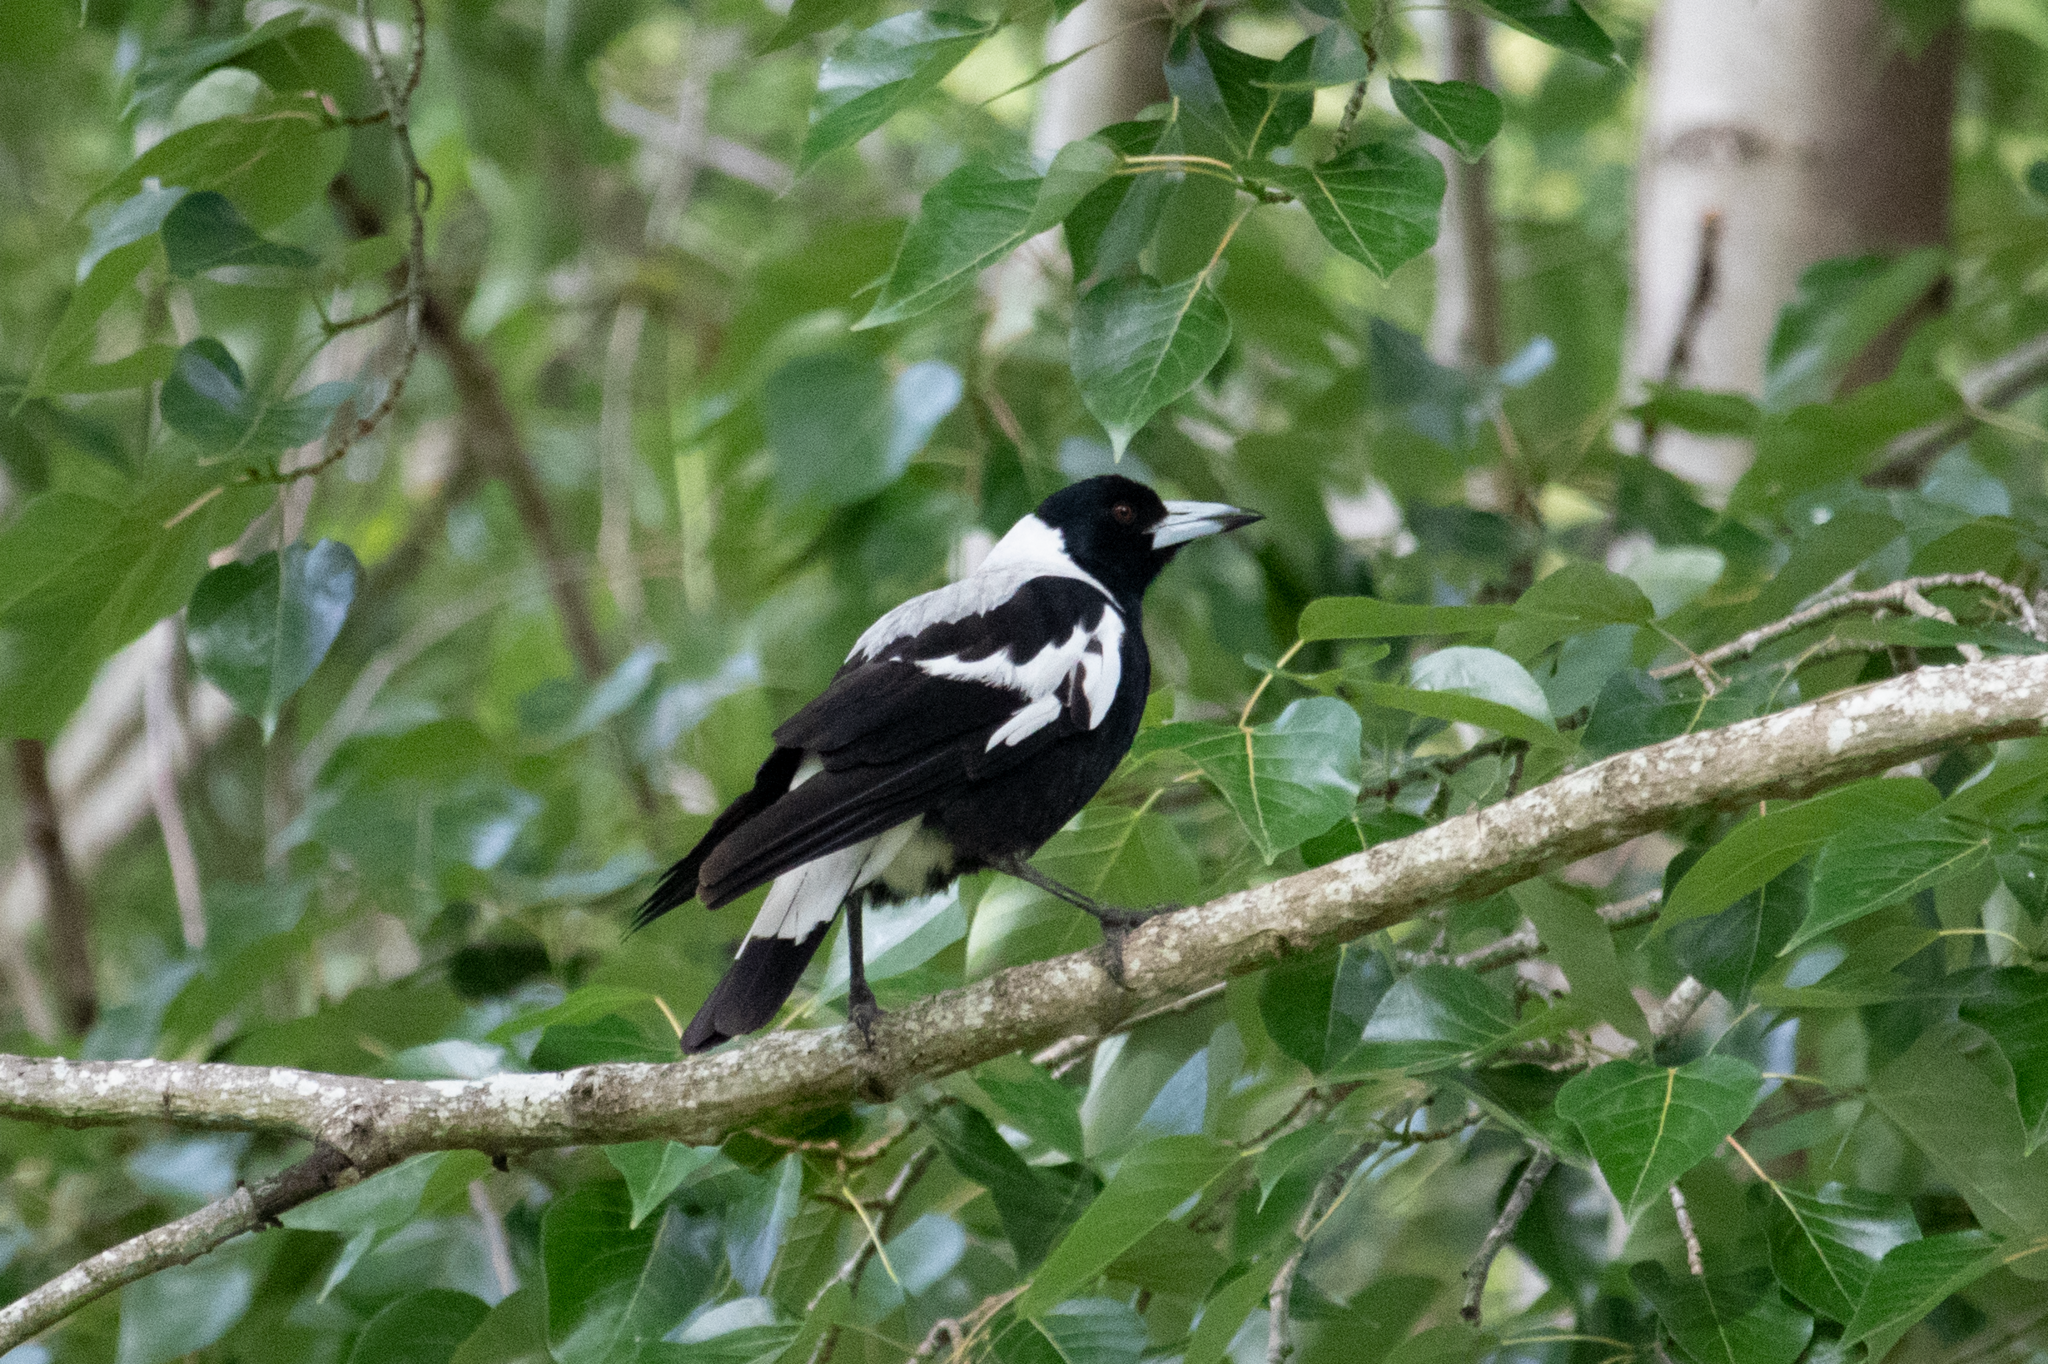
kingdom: Animalia
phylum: Chordata
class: Aves
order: Passeriformes
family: Cracticidae
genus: Gymnorhina
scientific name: Gymnorhina tibicen
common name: Australian magpie
